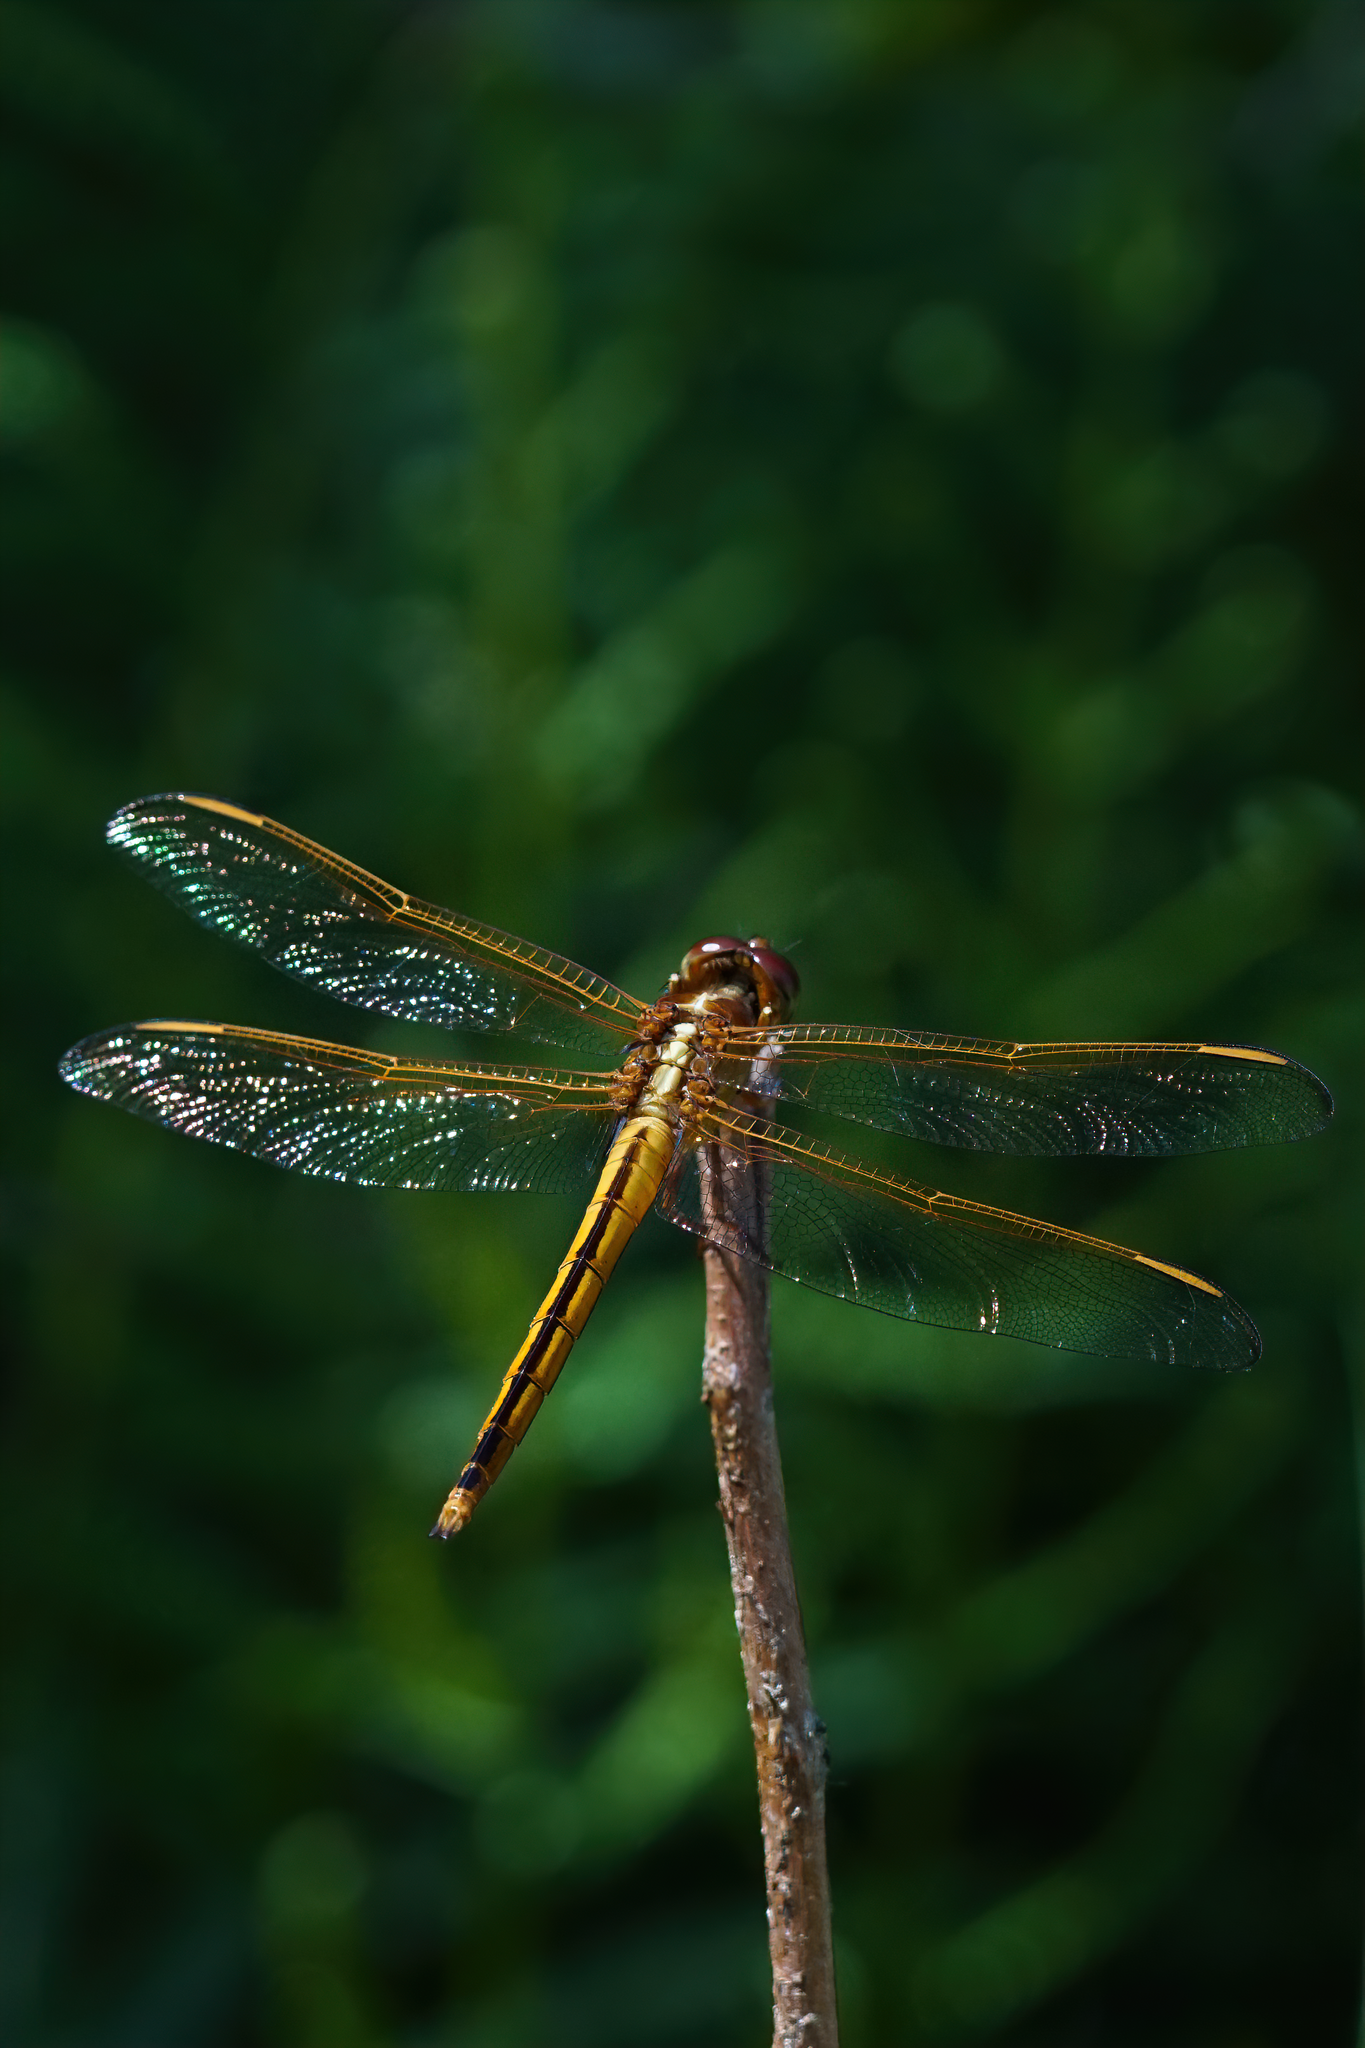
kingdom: Animalia
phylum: Arthropoda
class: Insecta
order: Odonata
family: Libellulidae
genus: Libellula
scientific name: Libellula needhami
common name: Needham's skimmer
